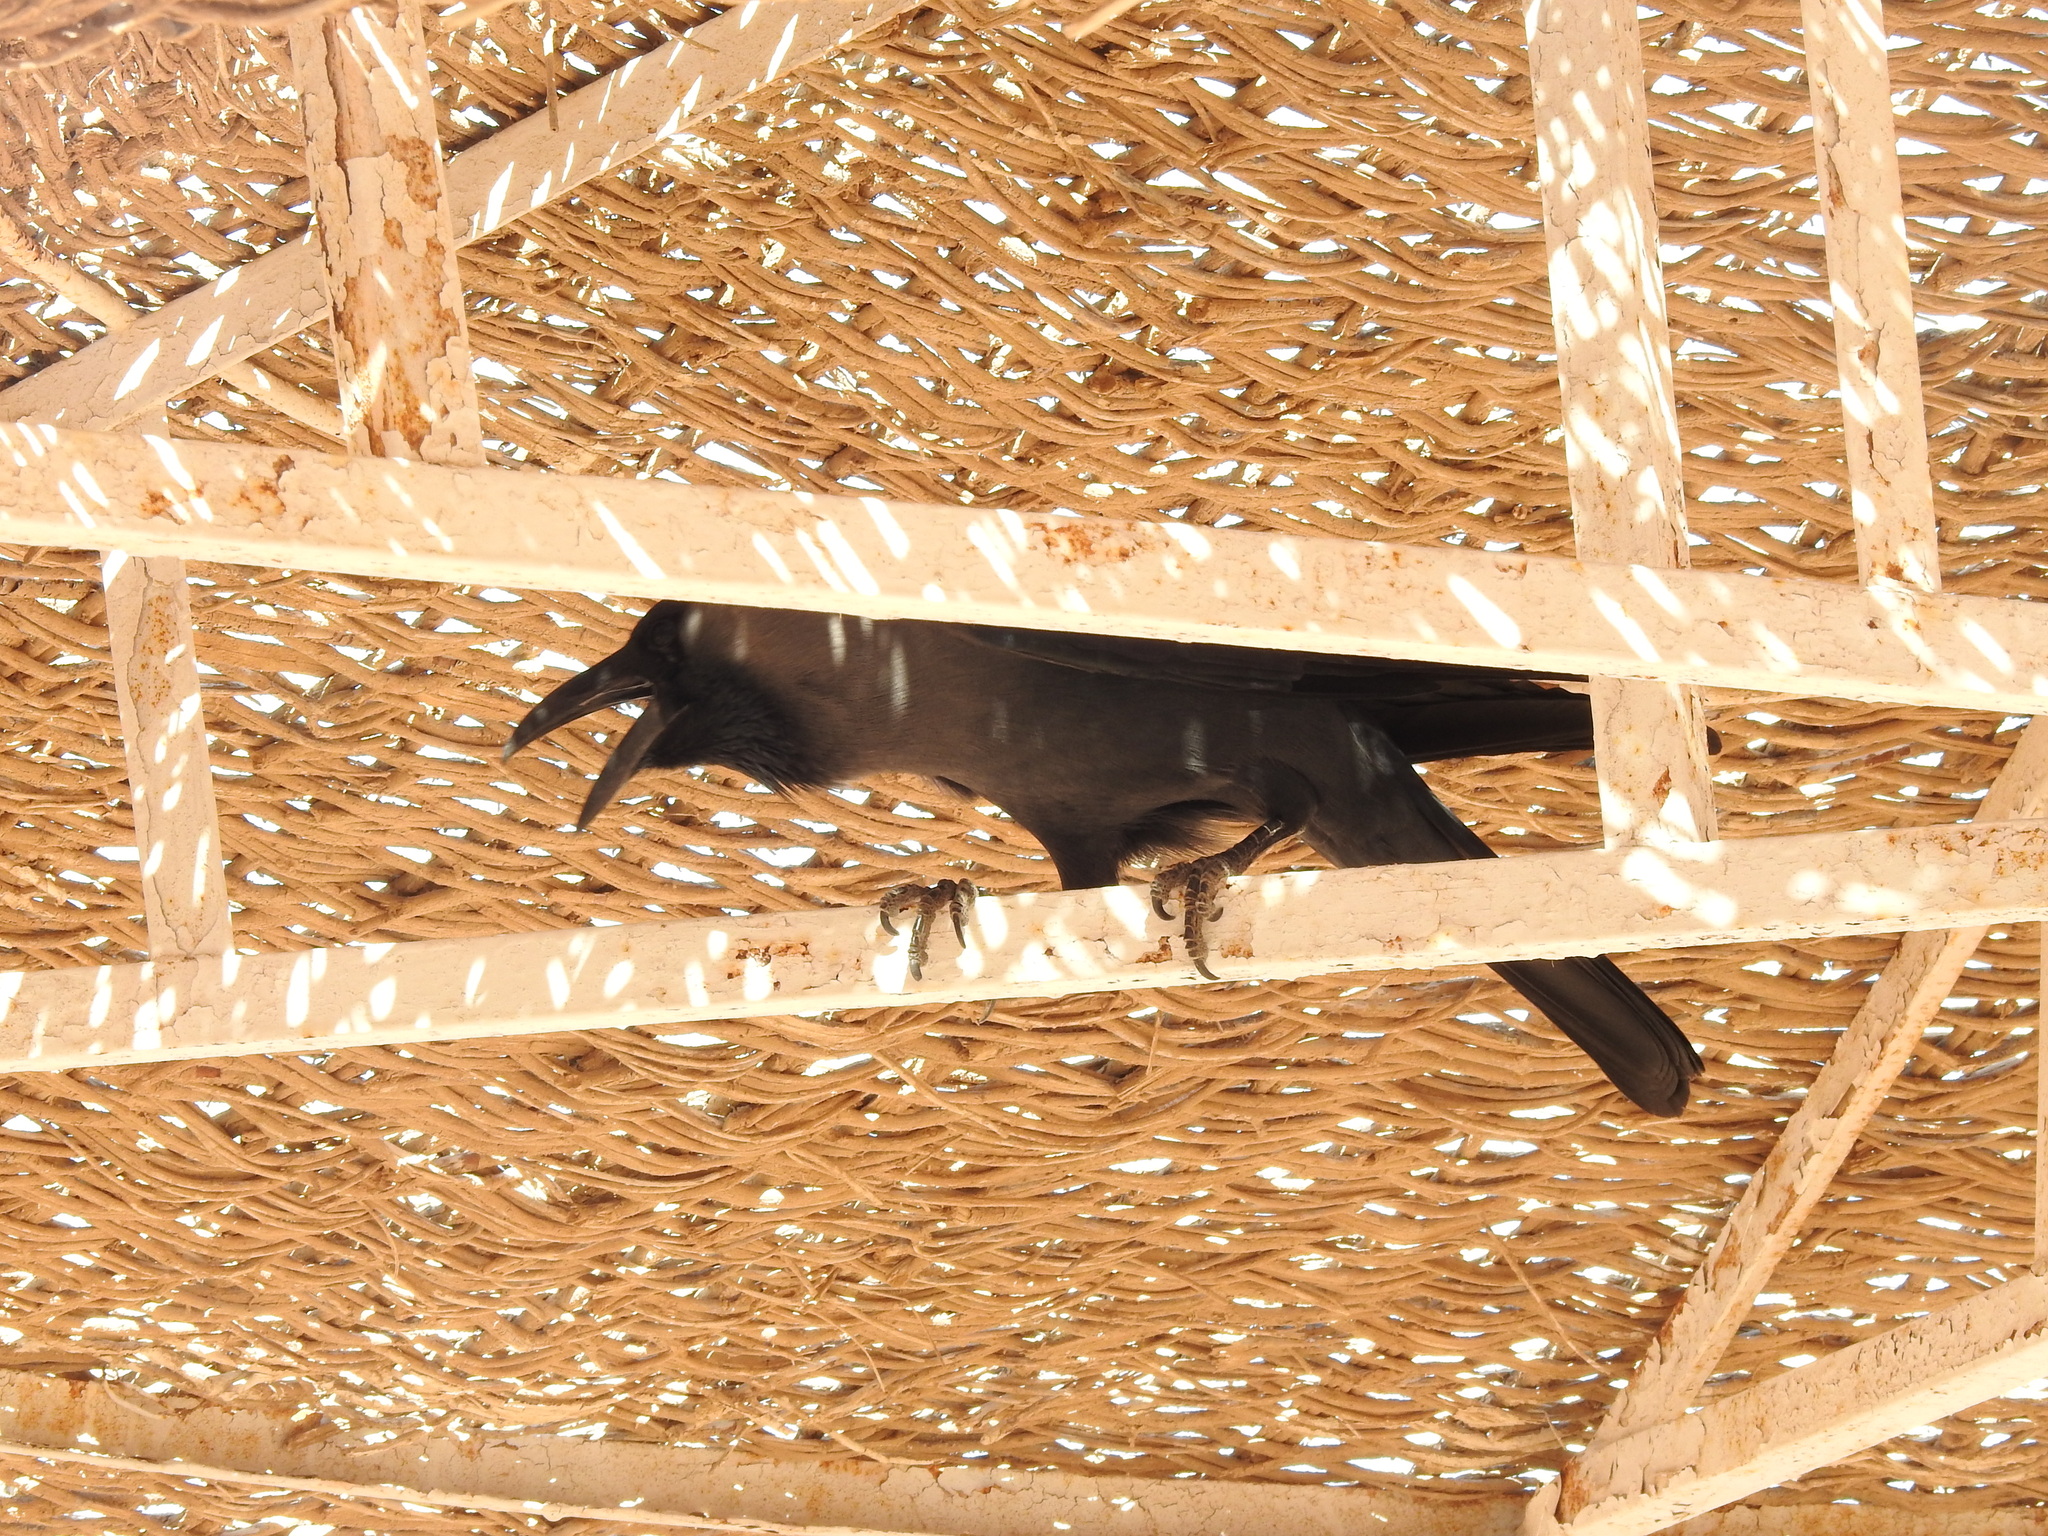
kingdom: Animalia
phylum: Chordata
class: Aves
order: Passeriformes
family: Corvidae
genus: Corvus
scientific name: Corvus splendens
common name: House crow
